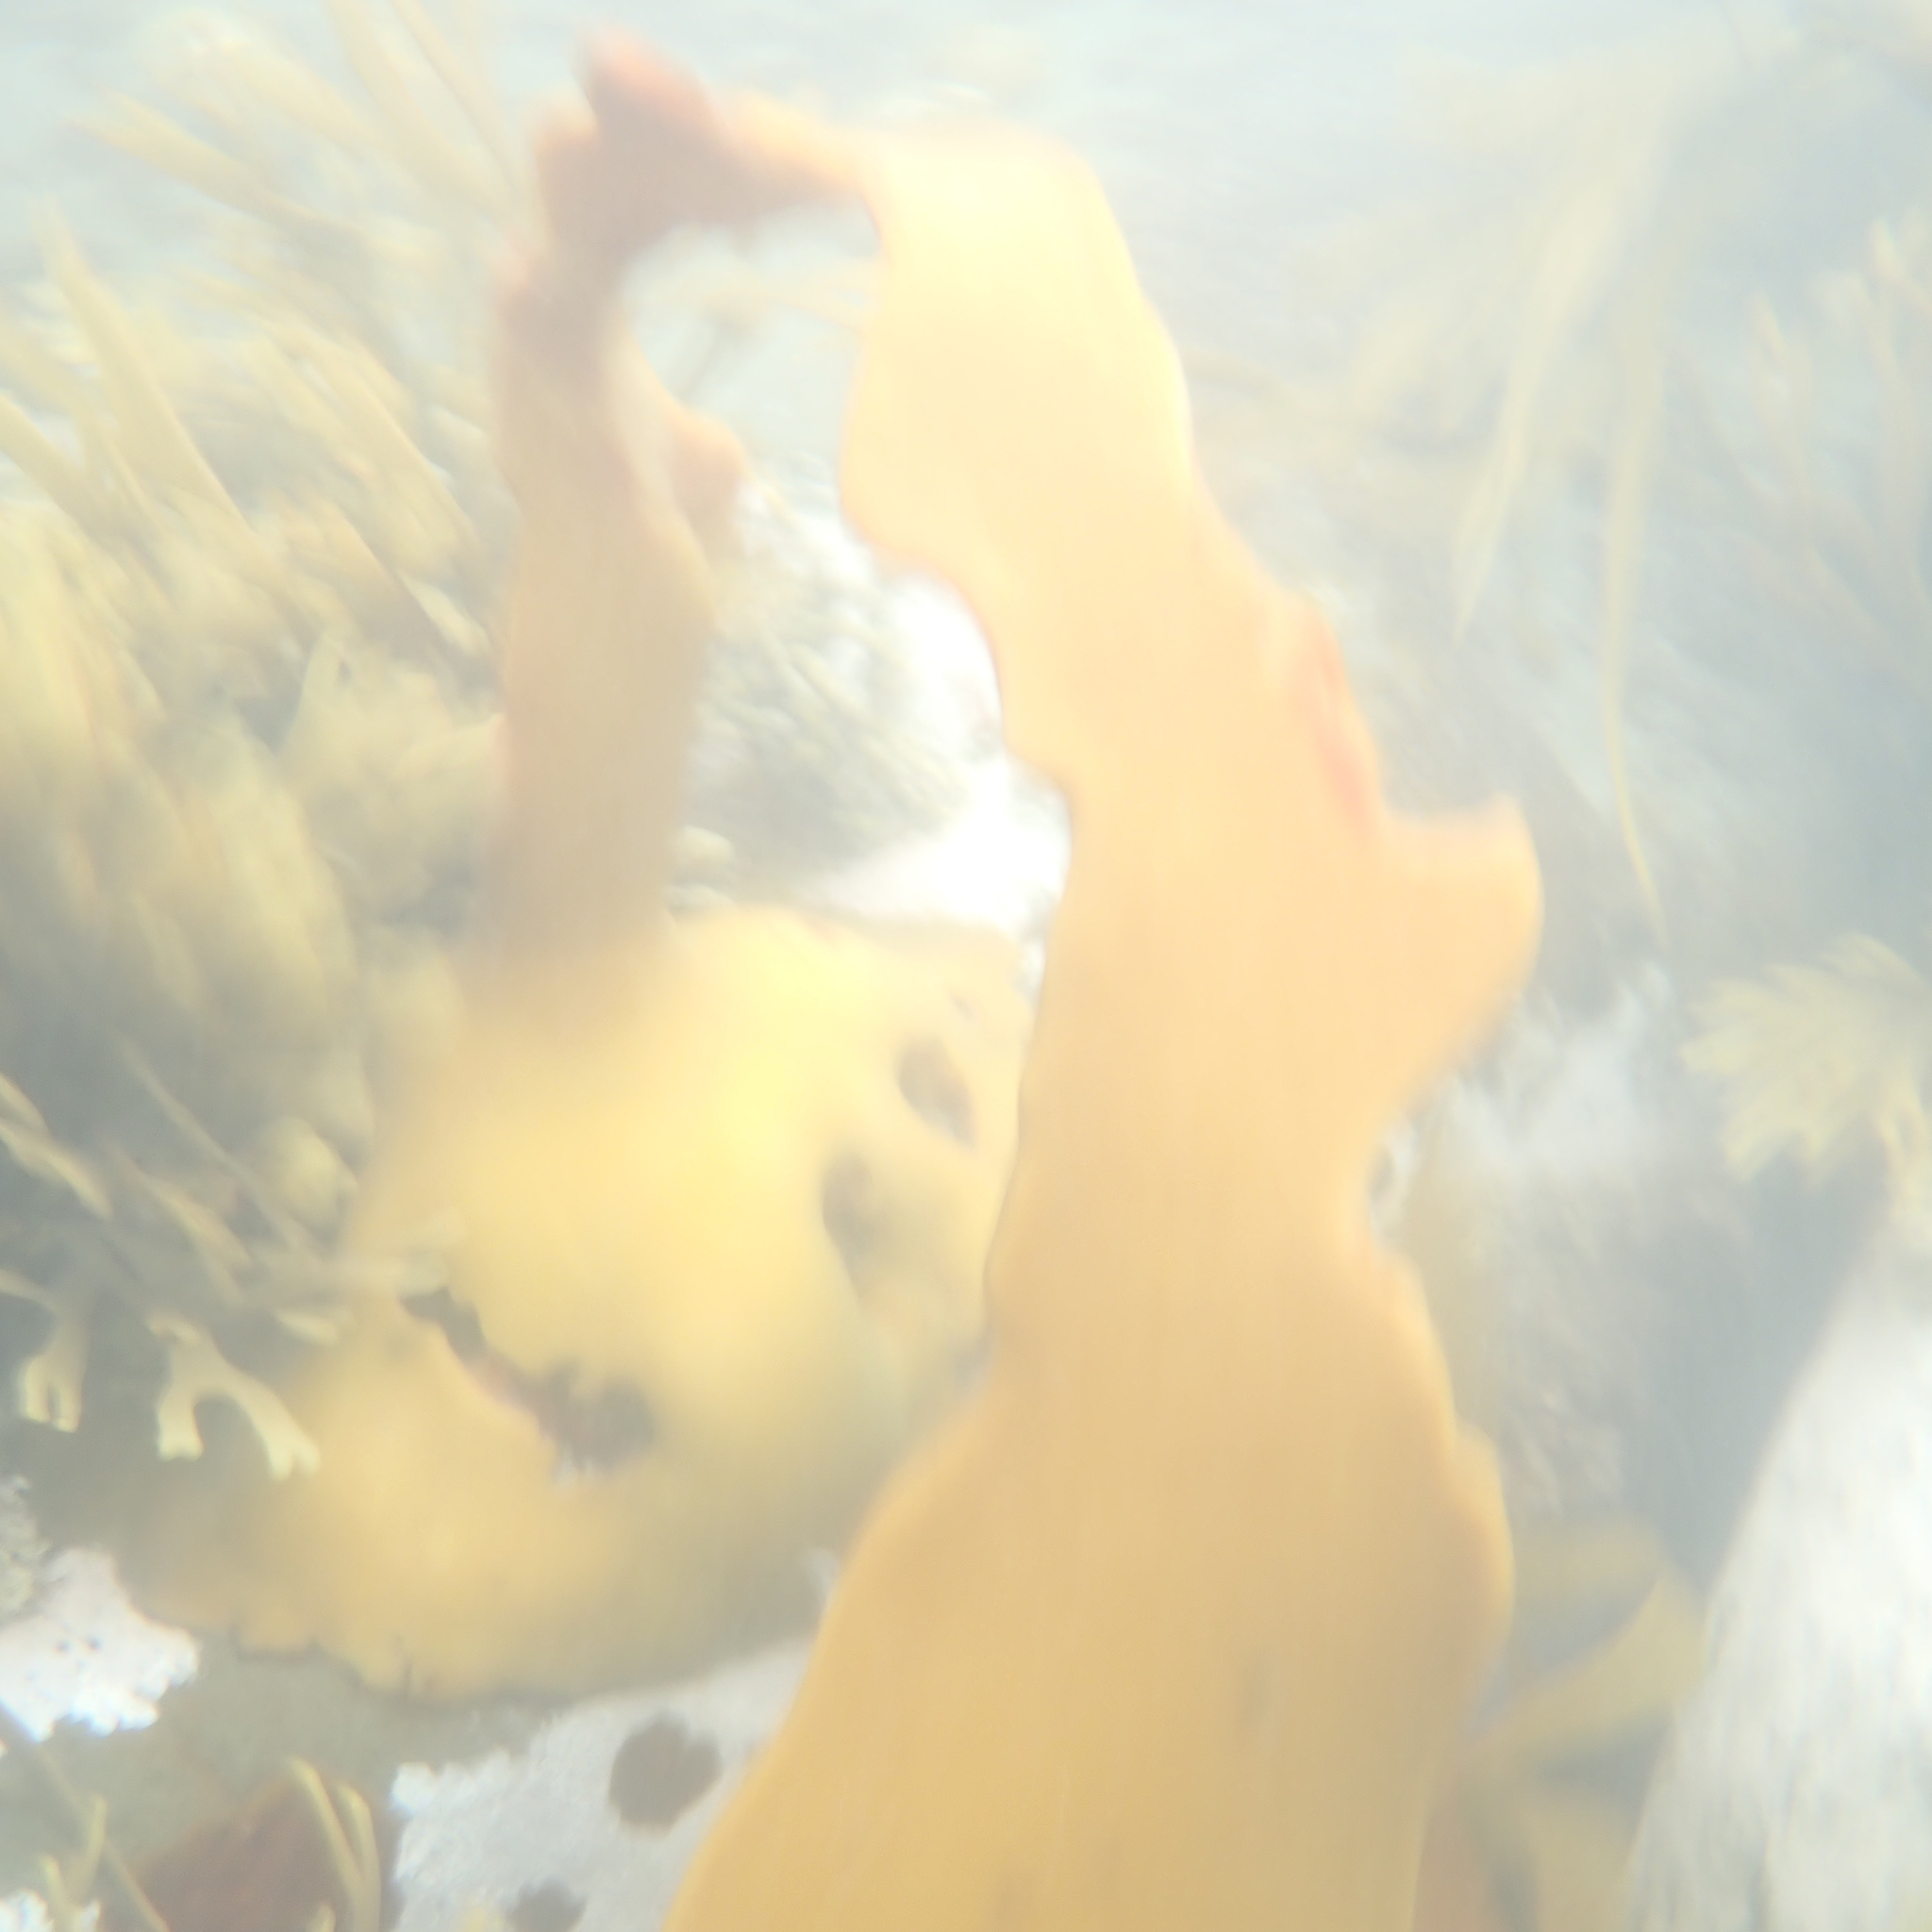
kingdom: Chromista
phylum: Ochrophyta
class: Phaeophyceae
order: Fucales
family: Durvillaeaceae
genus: Durvillaea
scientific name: Durvillaea poha
